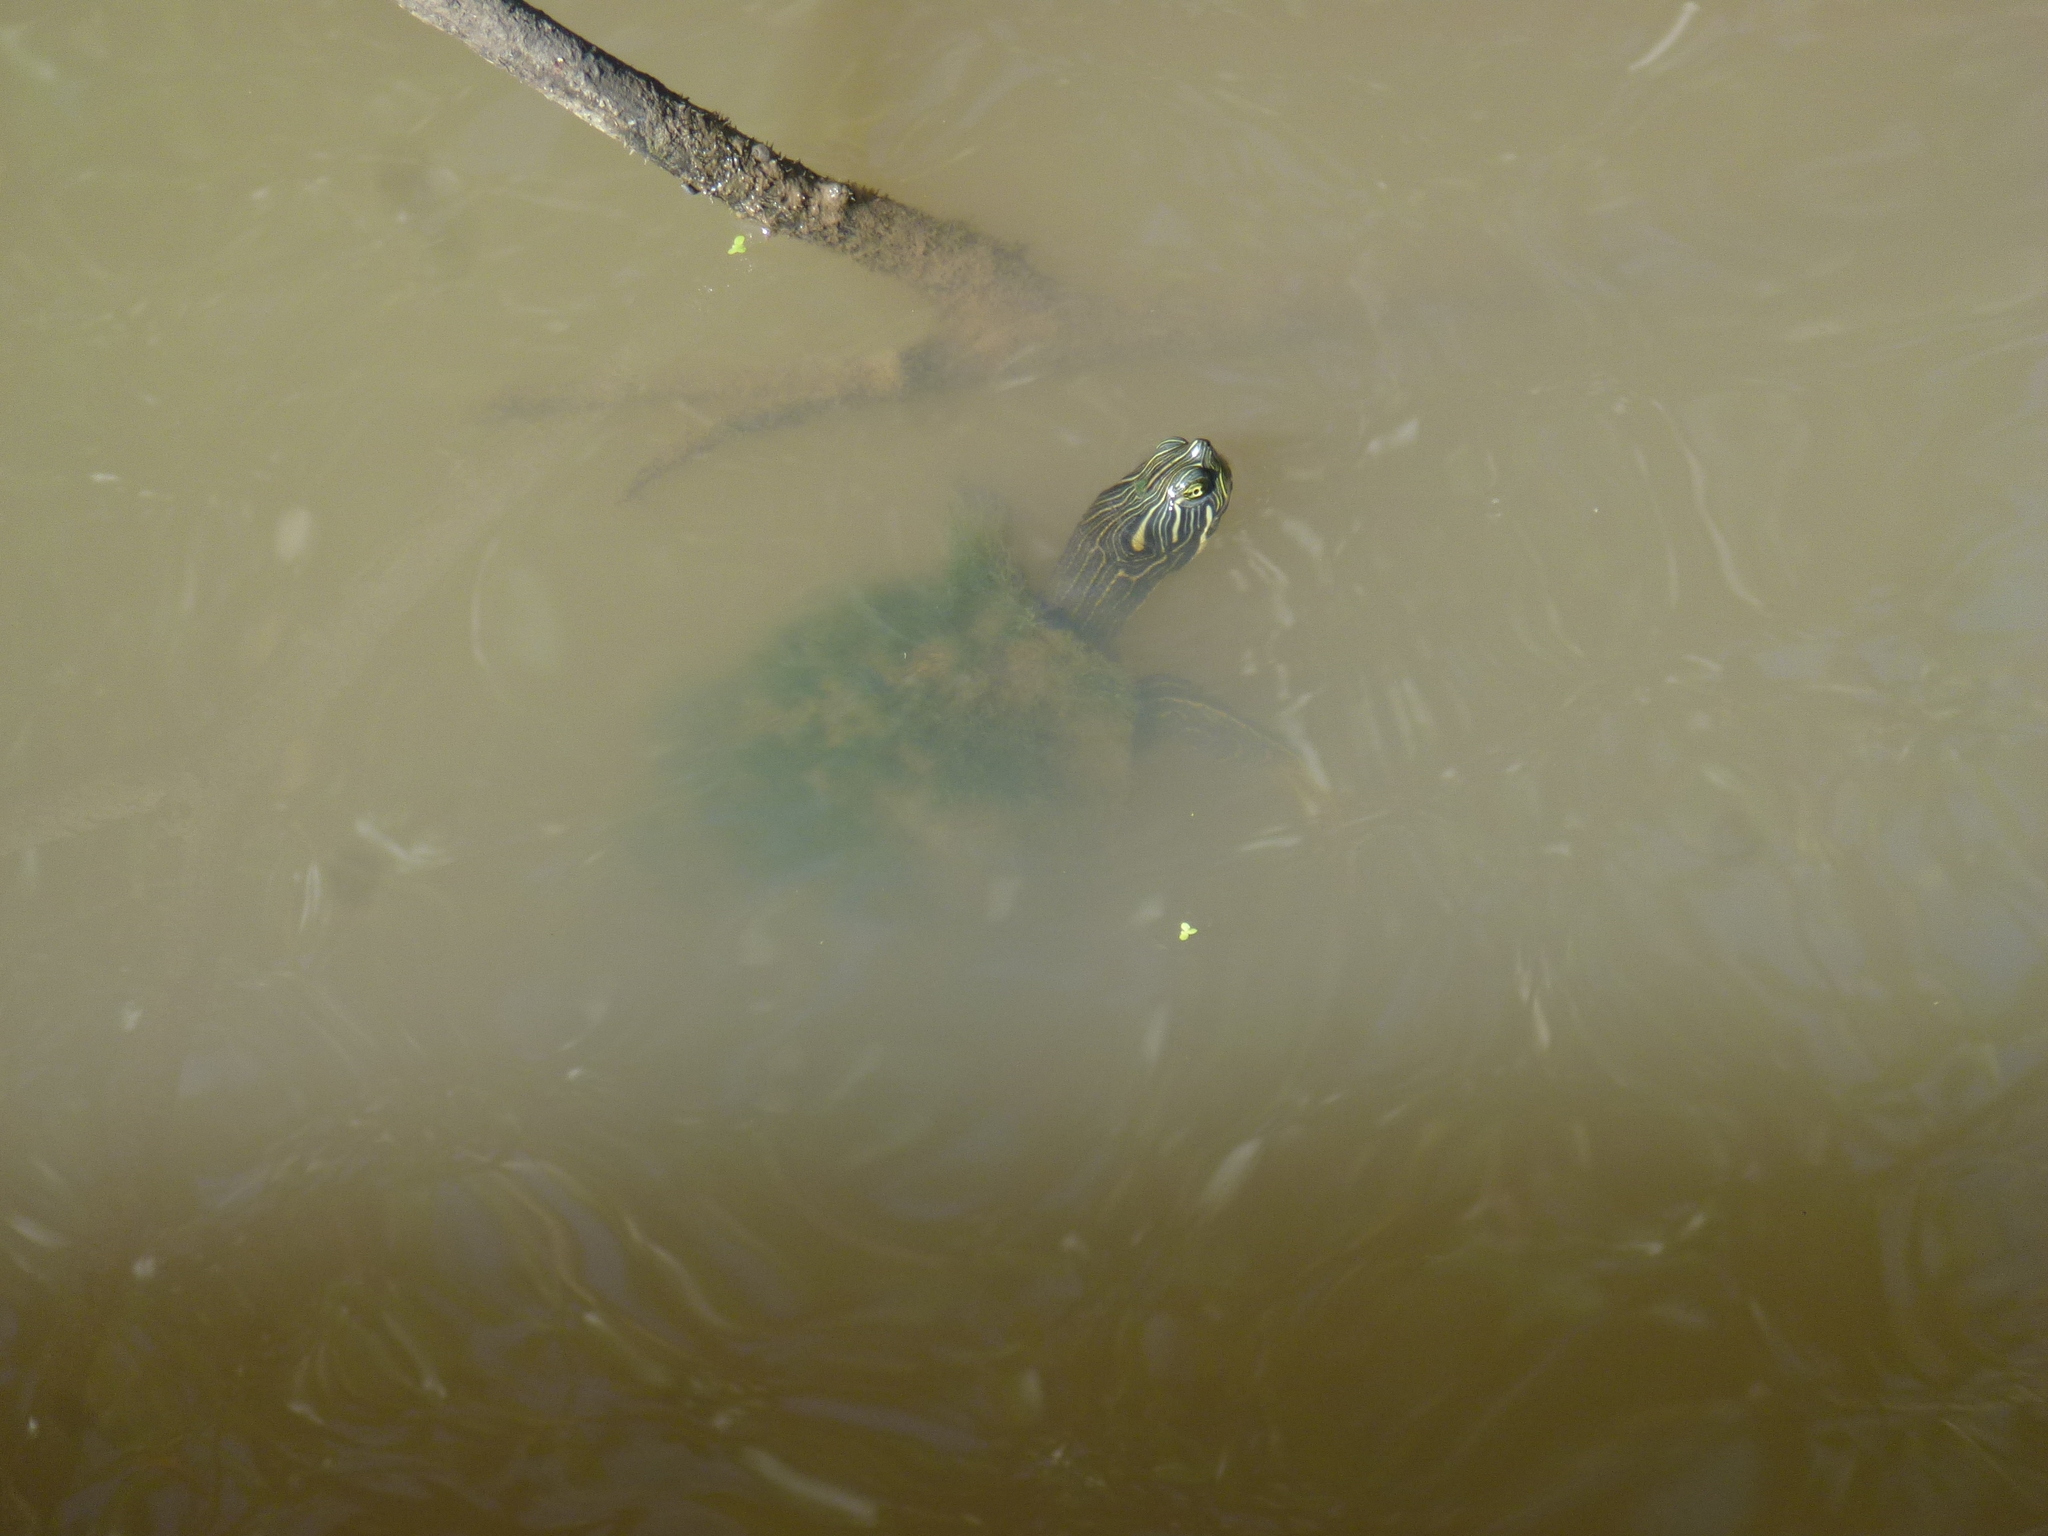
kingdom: Animalia
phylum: Chordata
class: Testudines
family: Emydidae
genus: Pseudemys
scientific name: Pseudemys concinna
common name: Eastern river cooter
